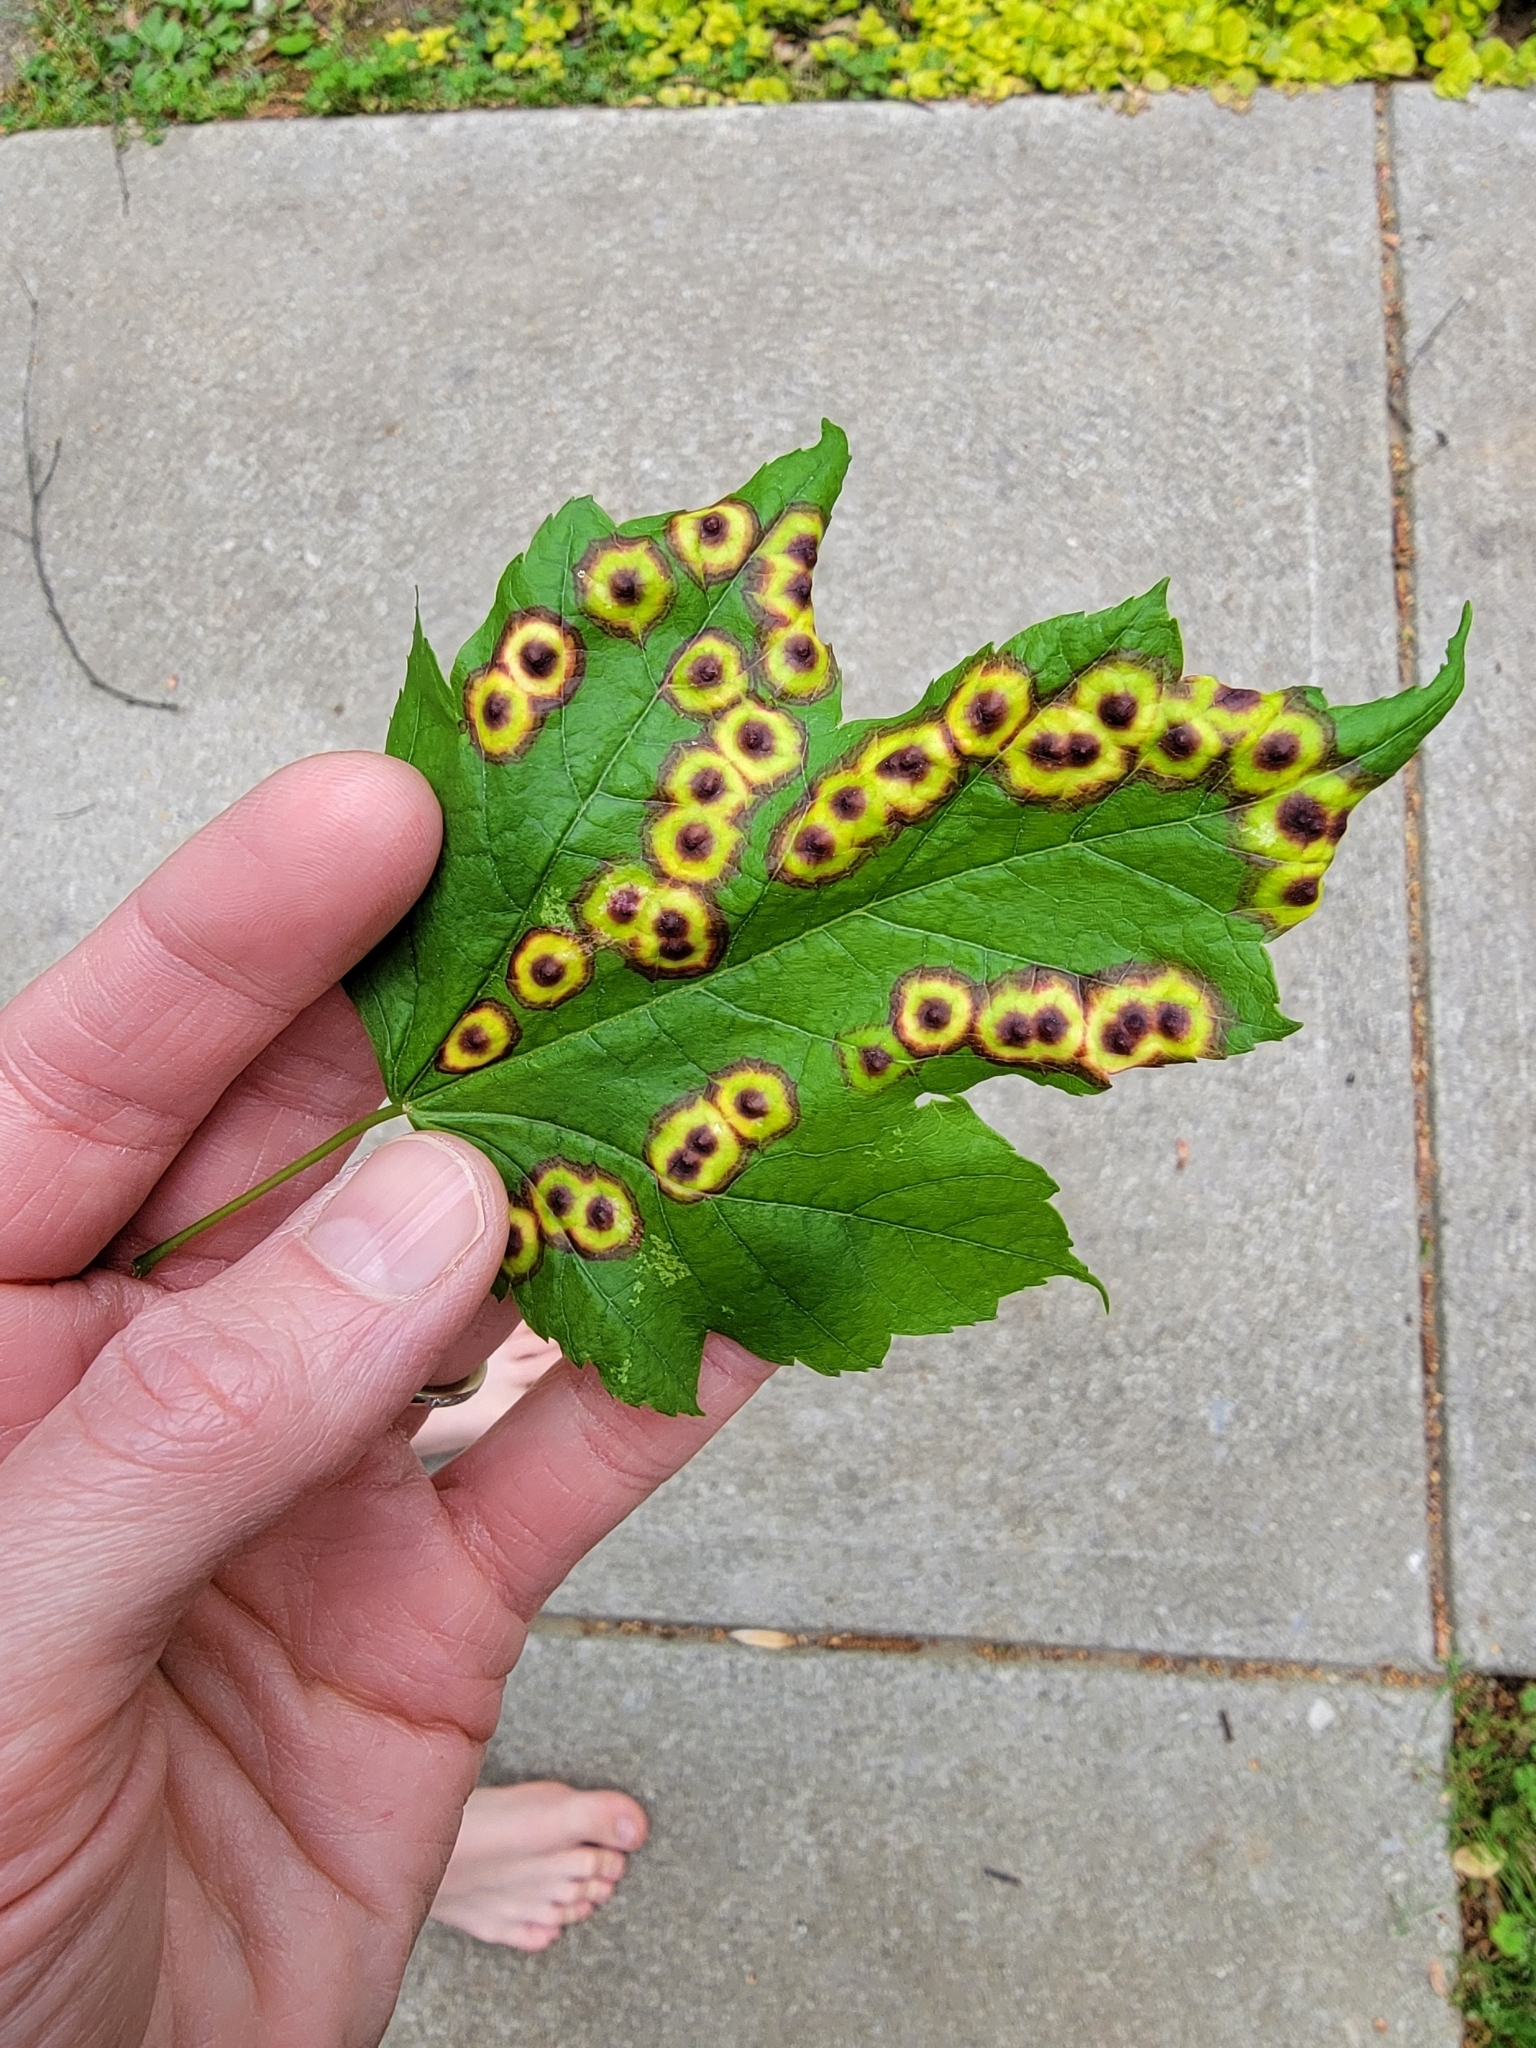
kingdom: Animalia
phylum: Arthropoda
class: Insecta
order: Diptera
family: Cecidomyiidae
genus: Acericecis
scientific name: Acericecis ocellaris
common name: Ocellate gall midge
